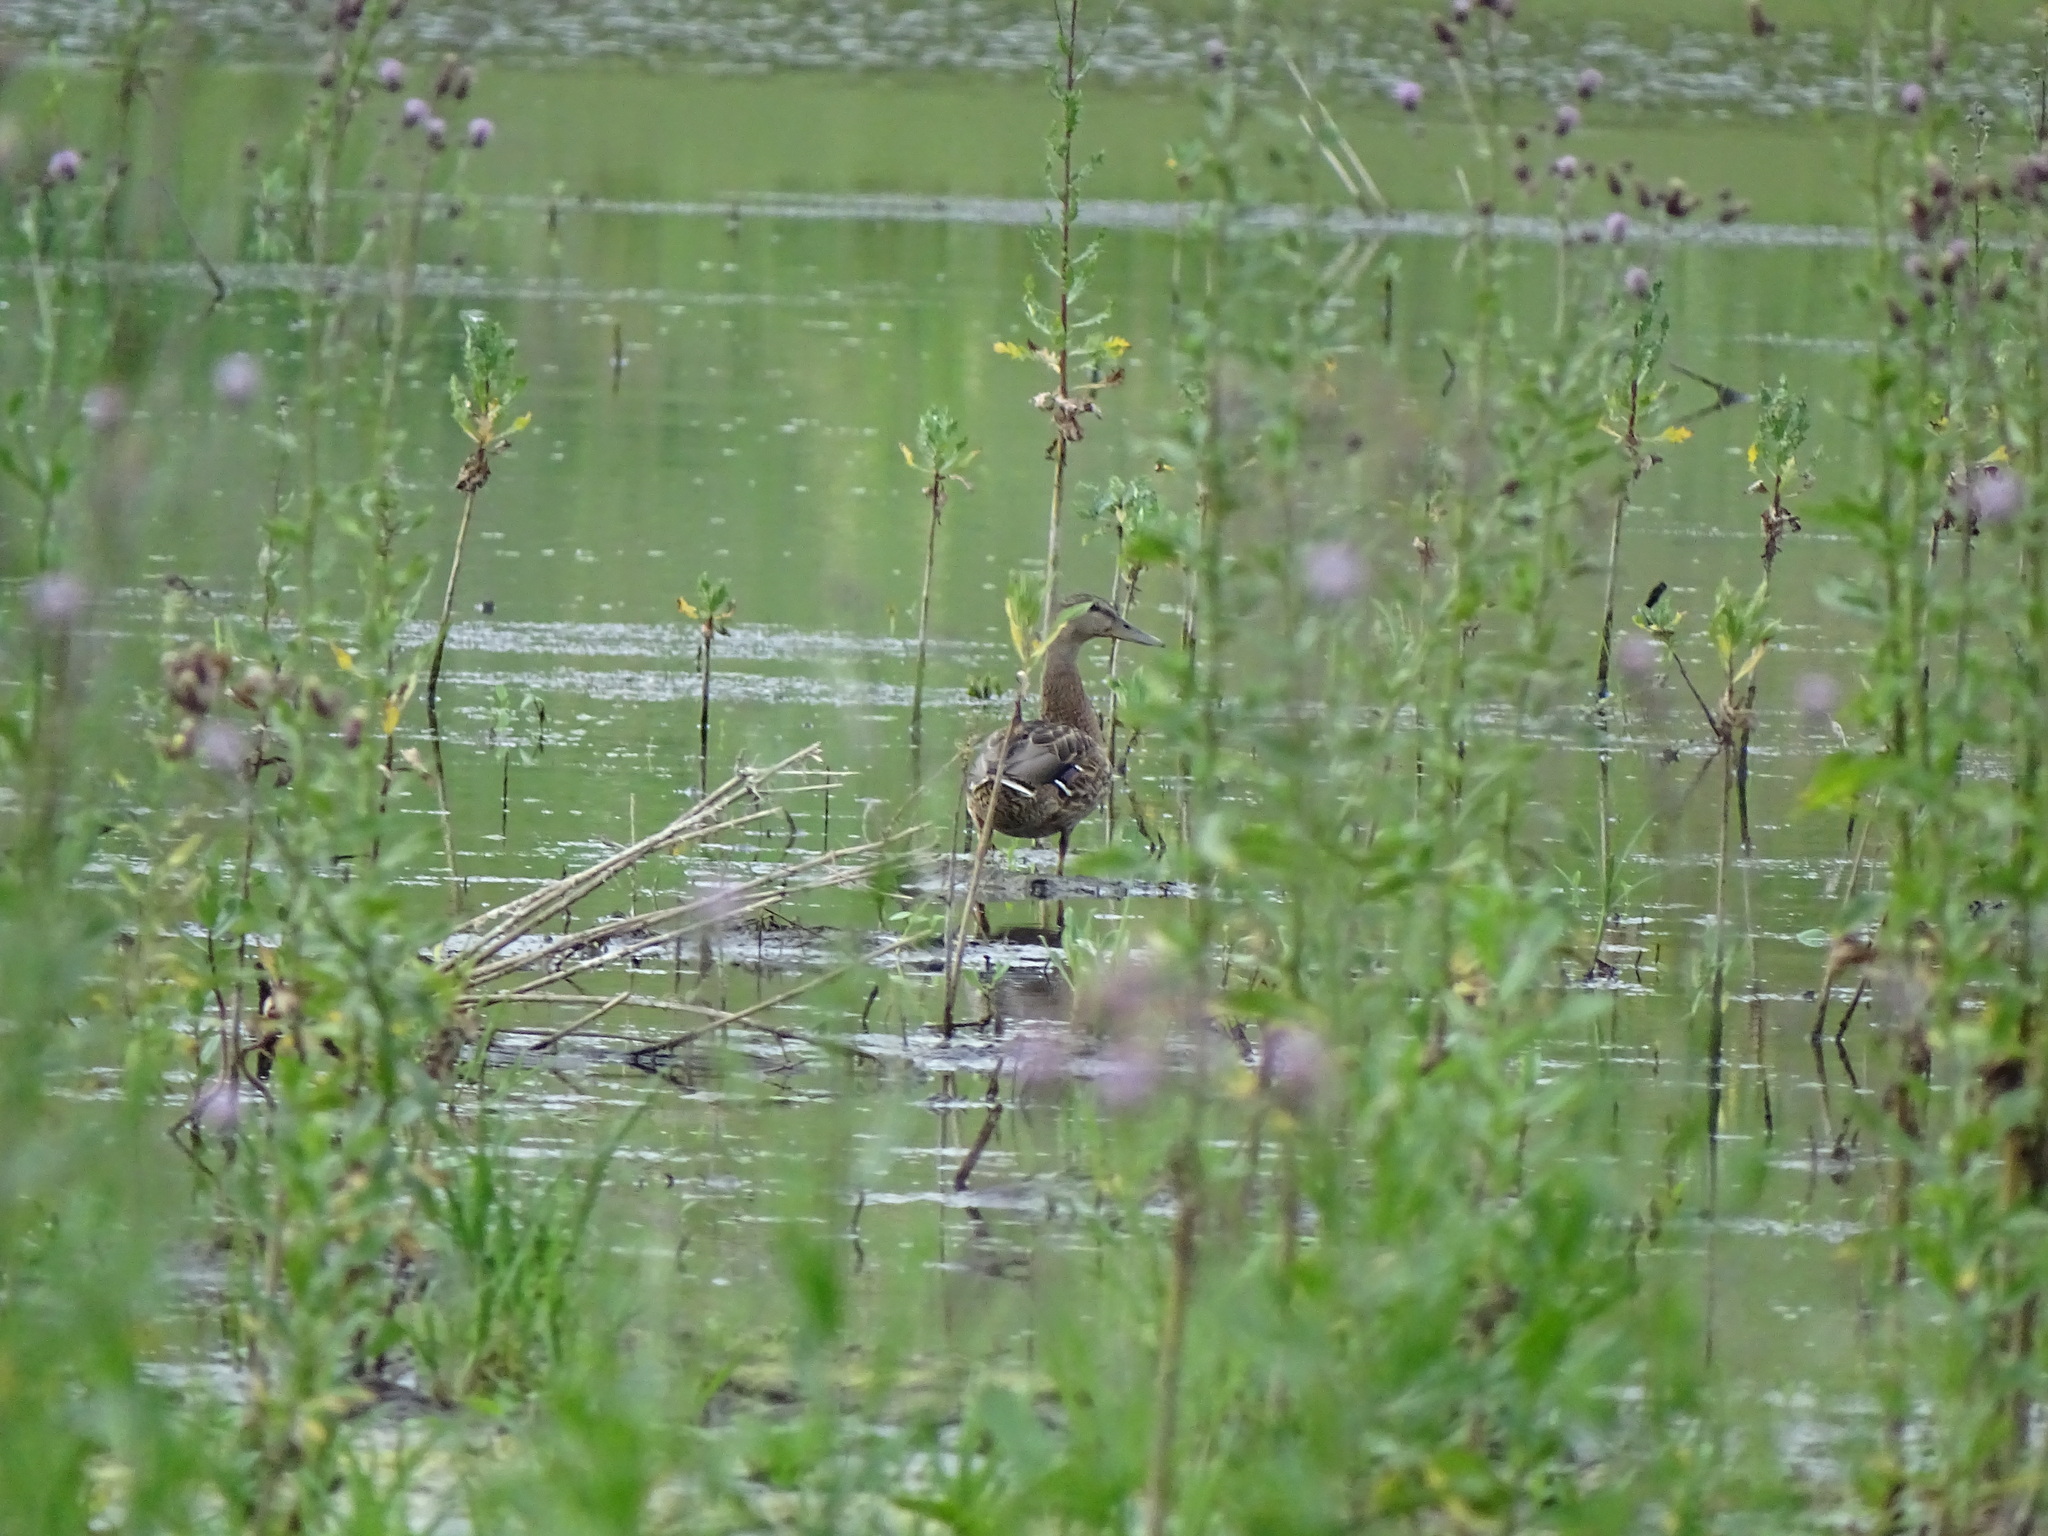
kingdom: Animalia
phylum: Chordata
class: Aves
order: Anseriformes
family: Anatidae
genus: Anas
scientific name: Anas platyrhynchos
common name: Mallard
